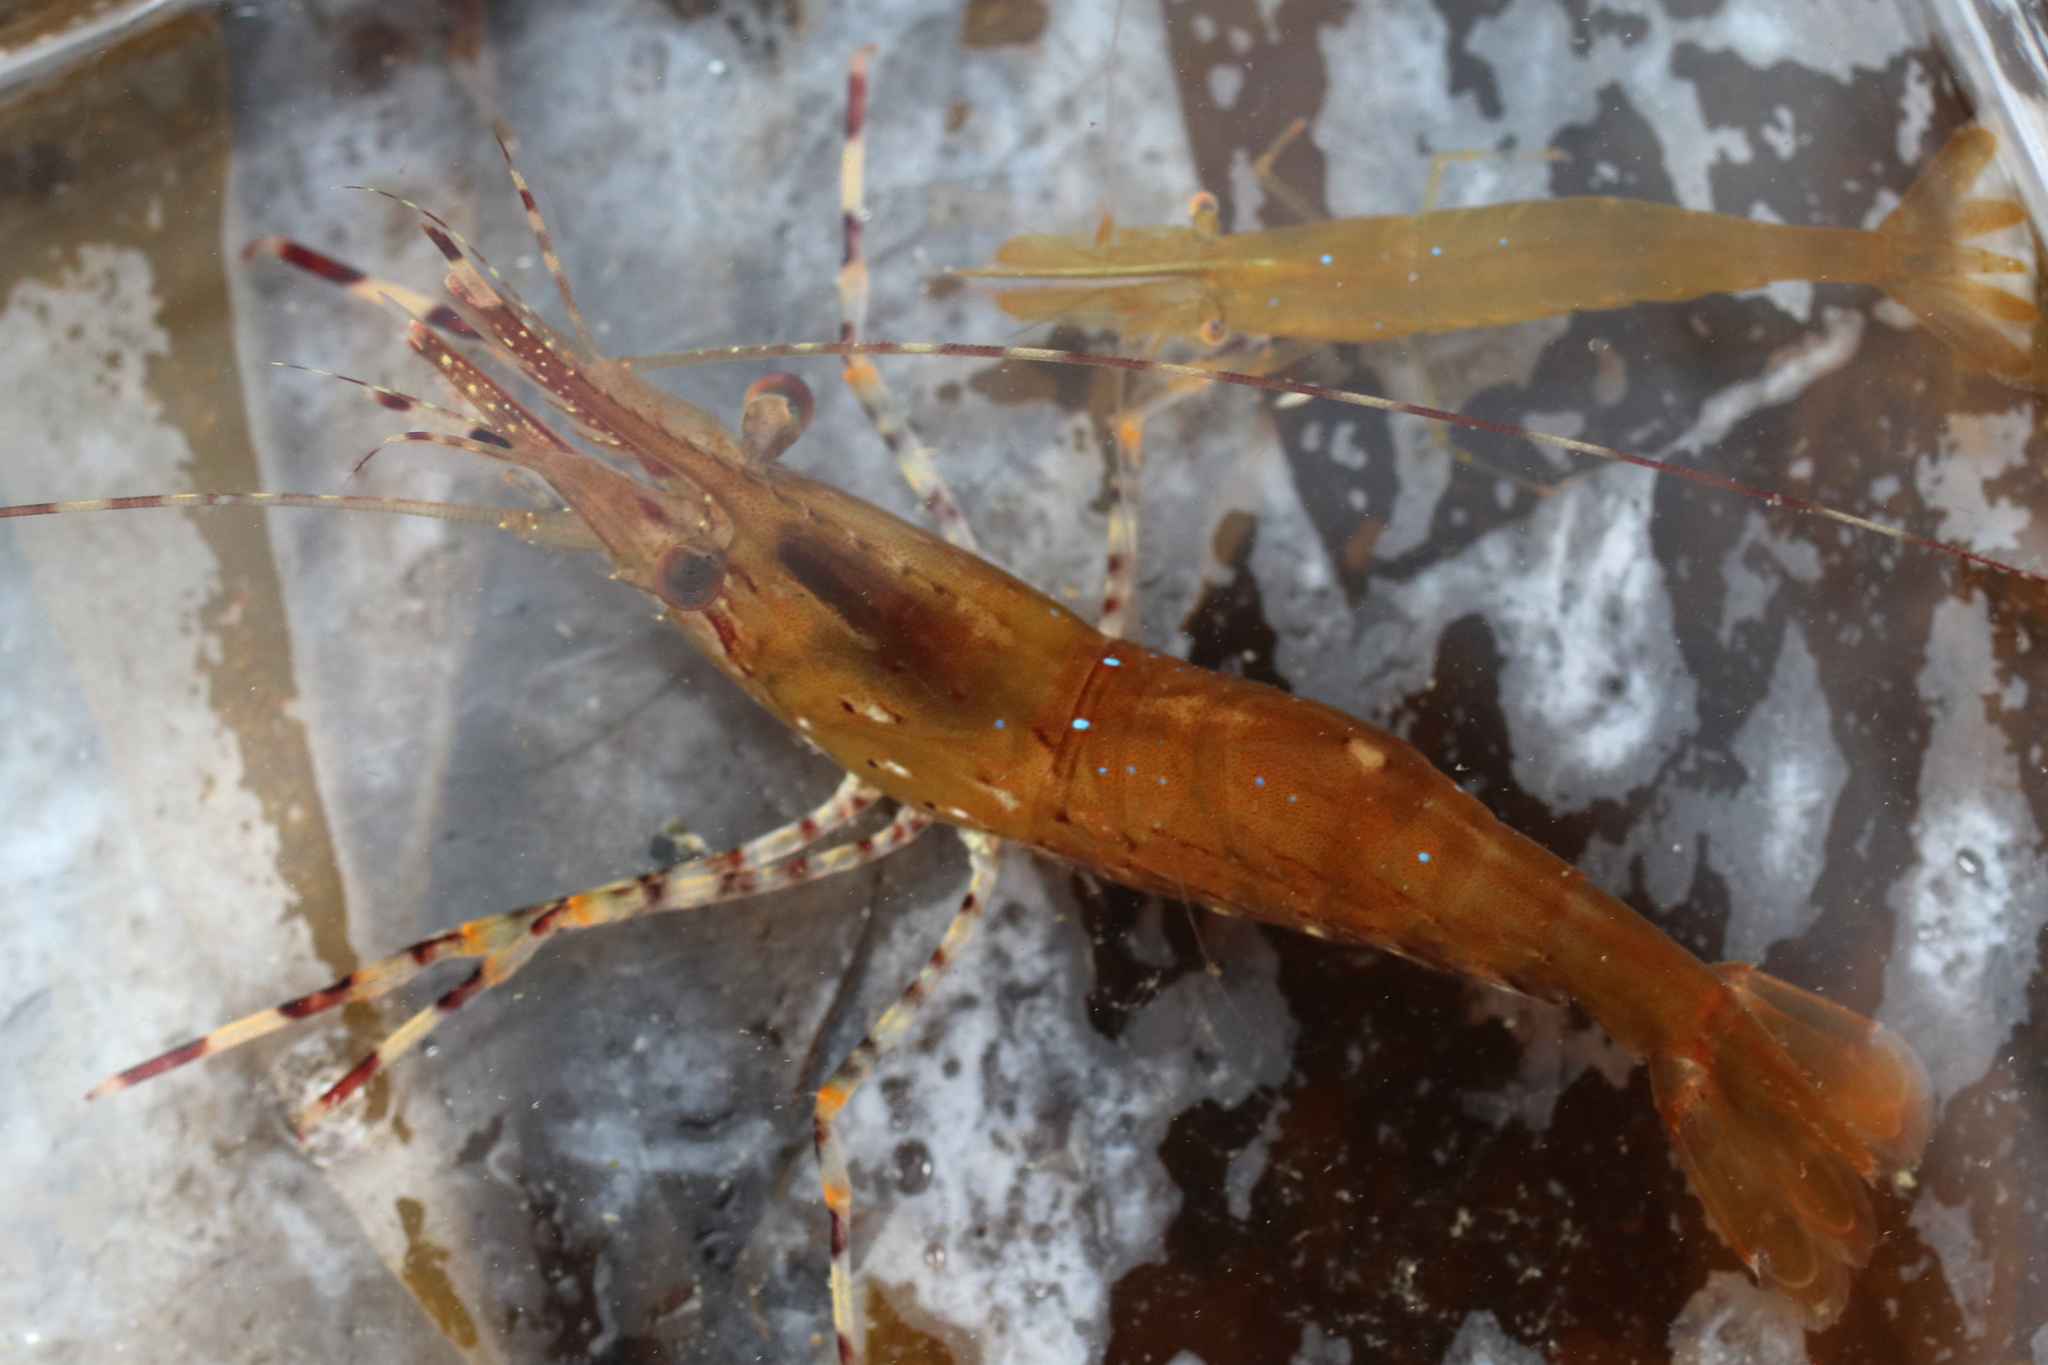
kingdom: Animalia
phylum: Arthropoda
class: Malacostraca
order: Decapoda
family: Pandalidae
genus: Pandalus
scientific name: Pandalus danae
